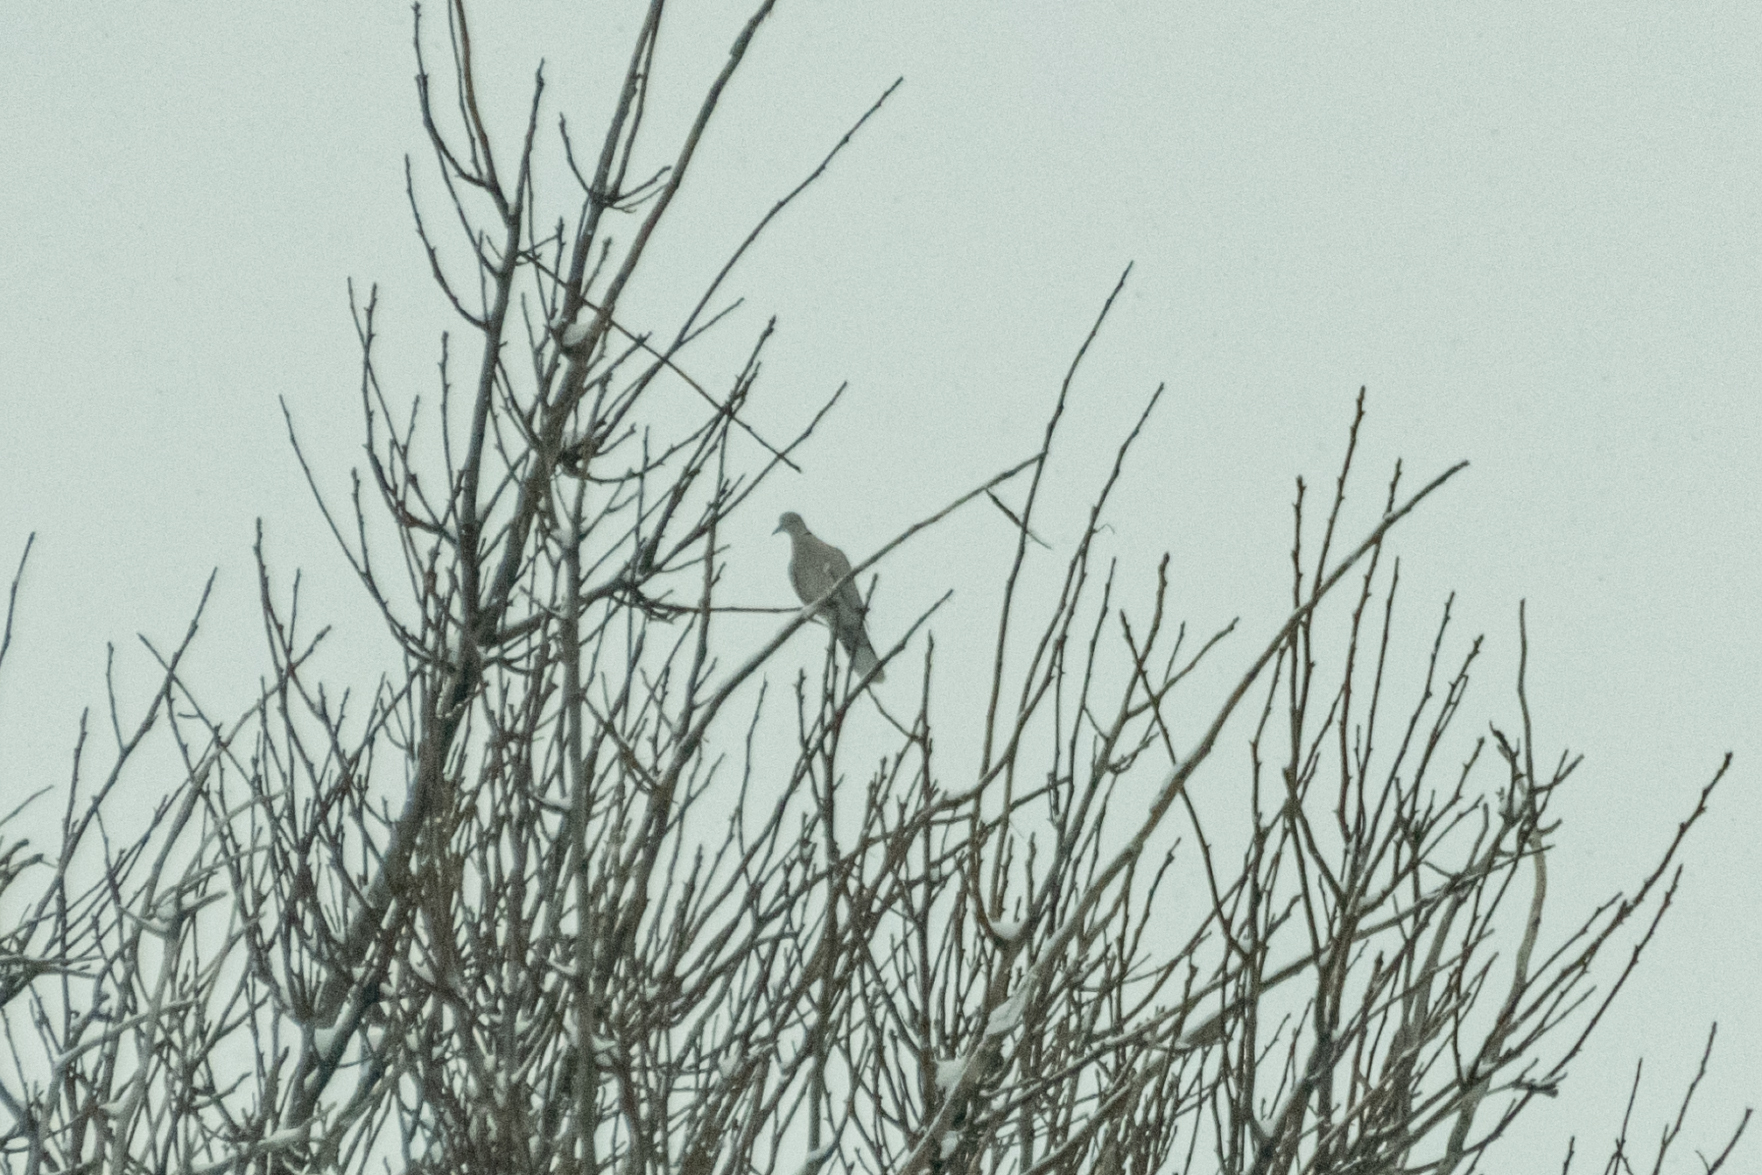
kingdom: Animalia
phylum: Chordata
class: Aves
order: Columbiformes
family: Columbidae
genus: Streptopelia
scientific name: Streptopelia decaocto
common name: Eurasian collared dove
